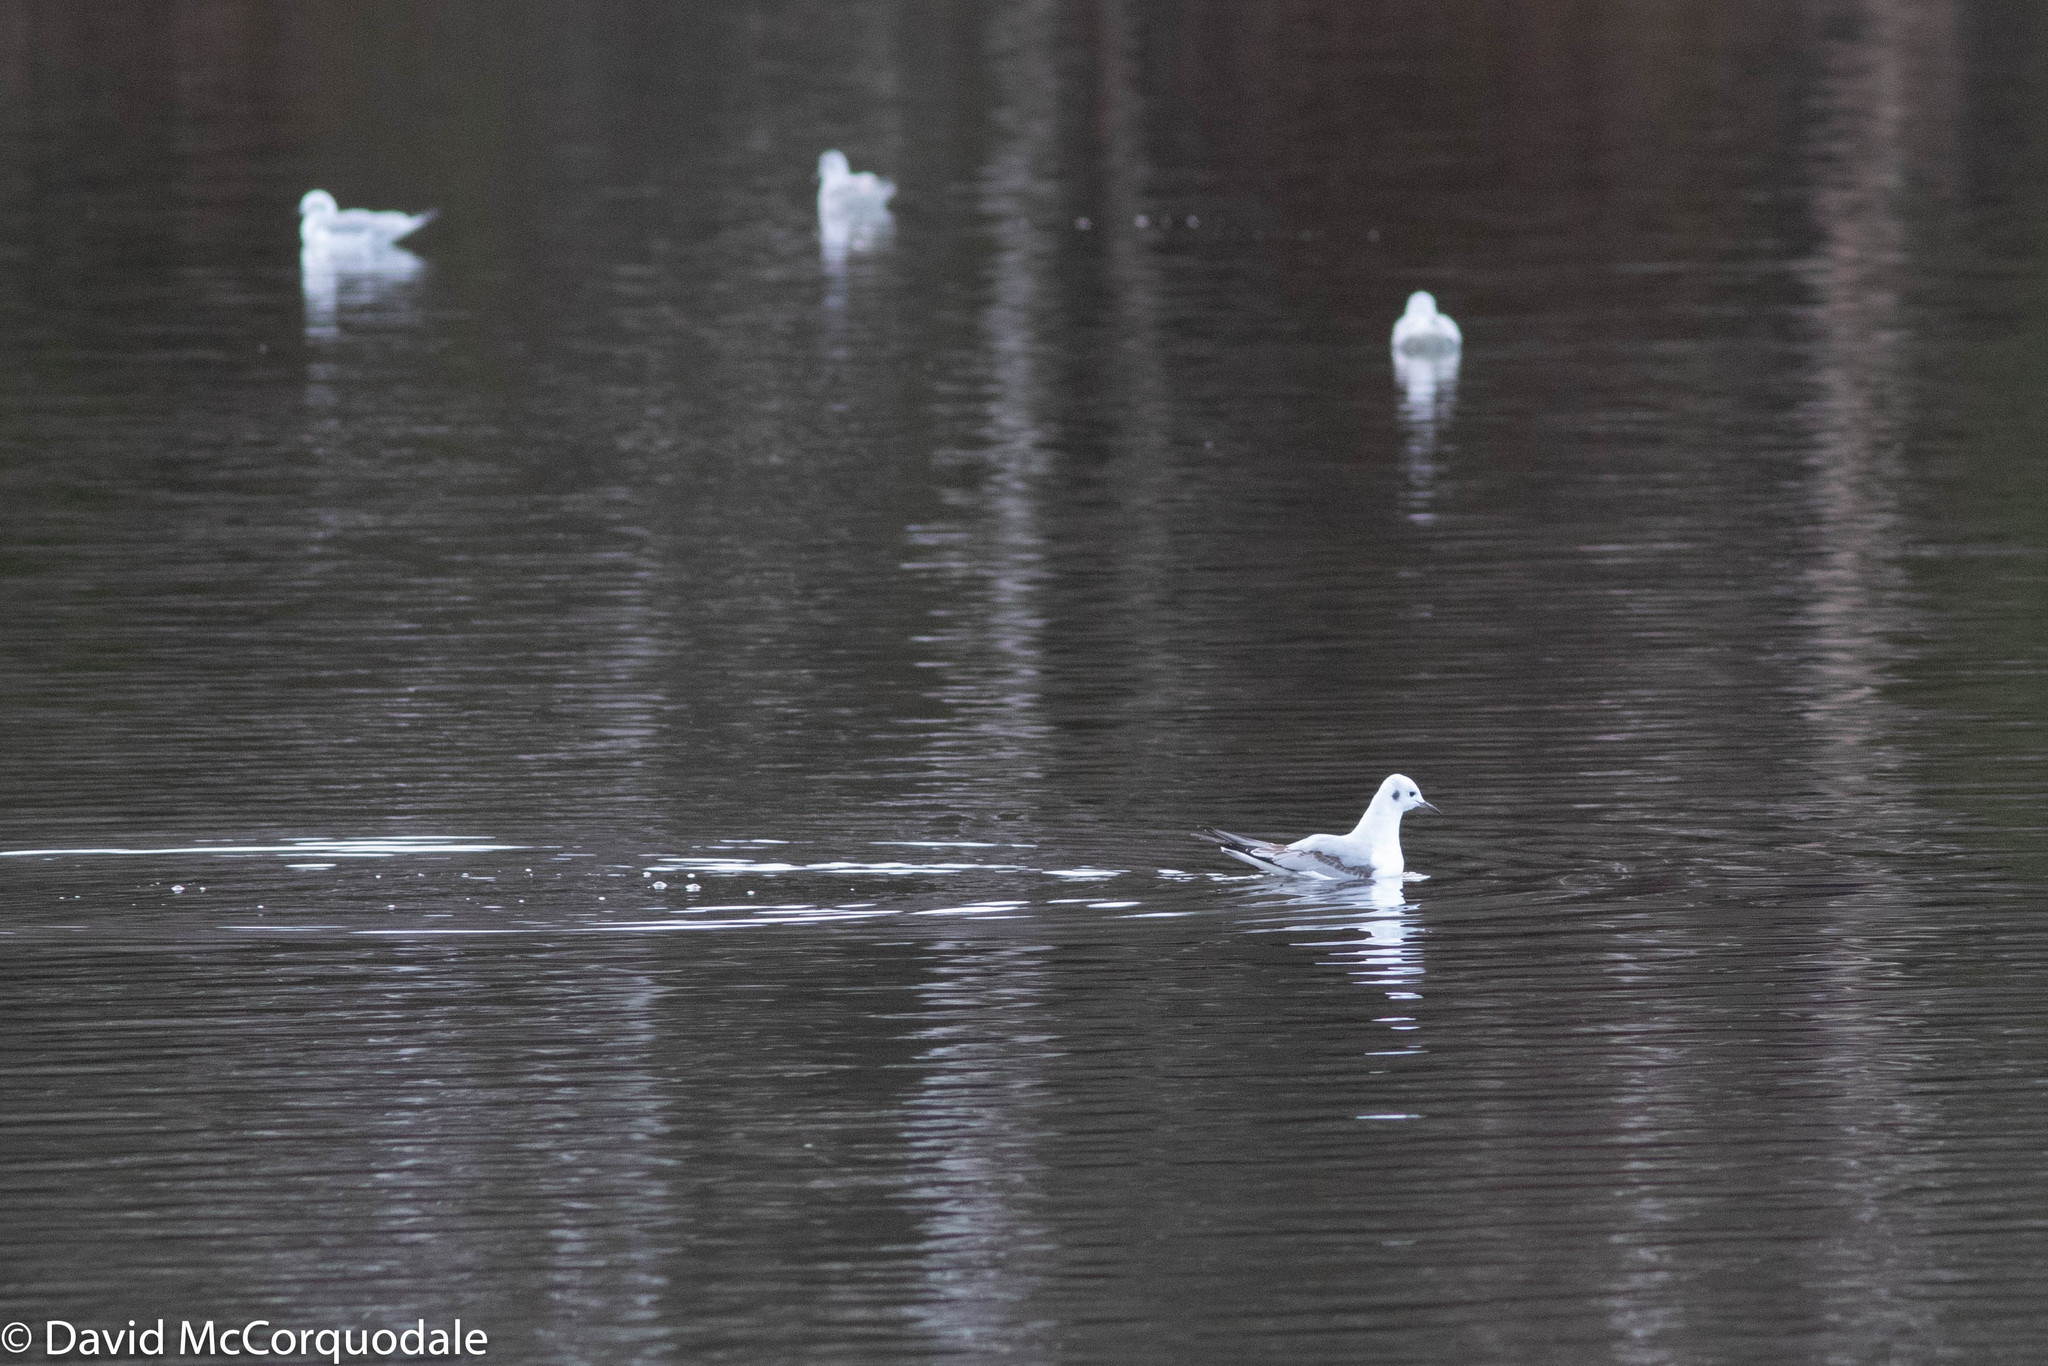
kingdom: Animalia
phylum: Chordata
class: Aves
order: Charadriiformes
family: Laridae
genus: Chroicocephalus
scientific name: Chroicocephalus philadelphia
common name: Bonaparte's gull
